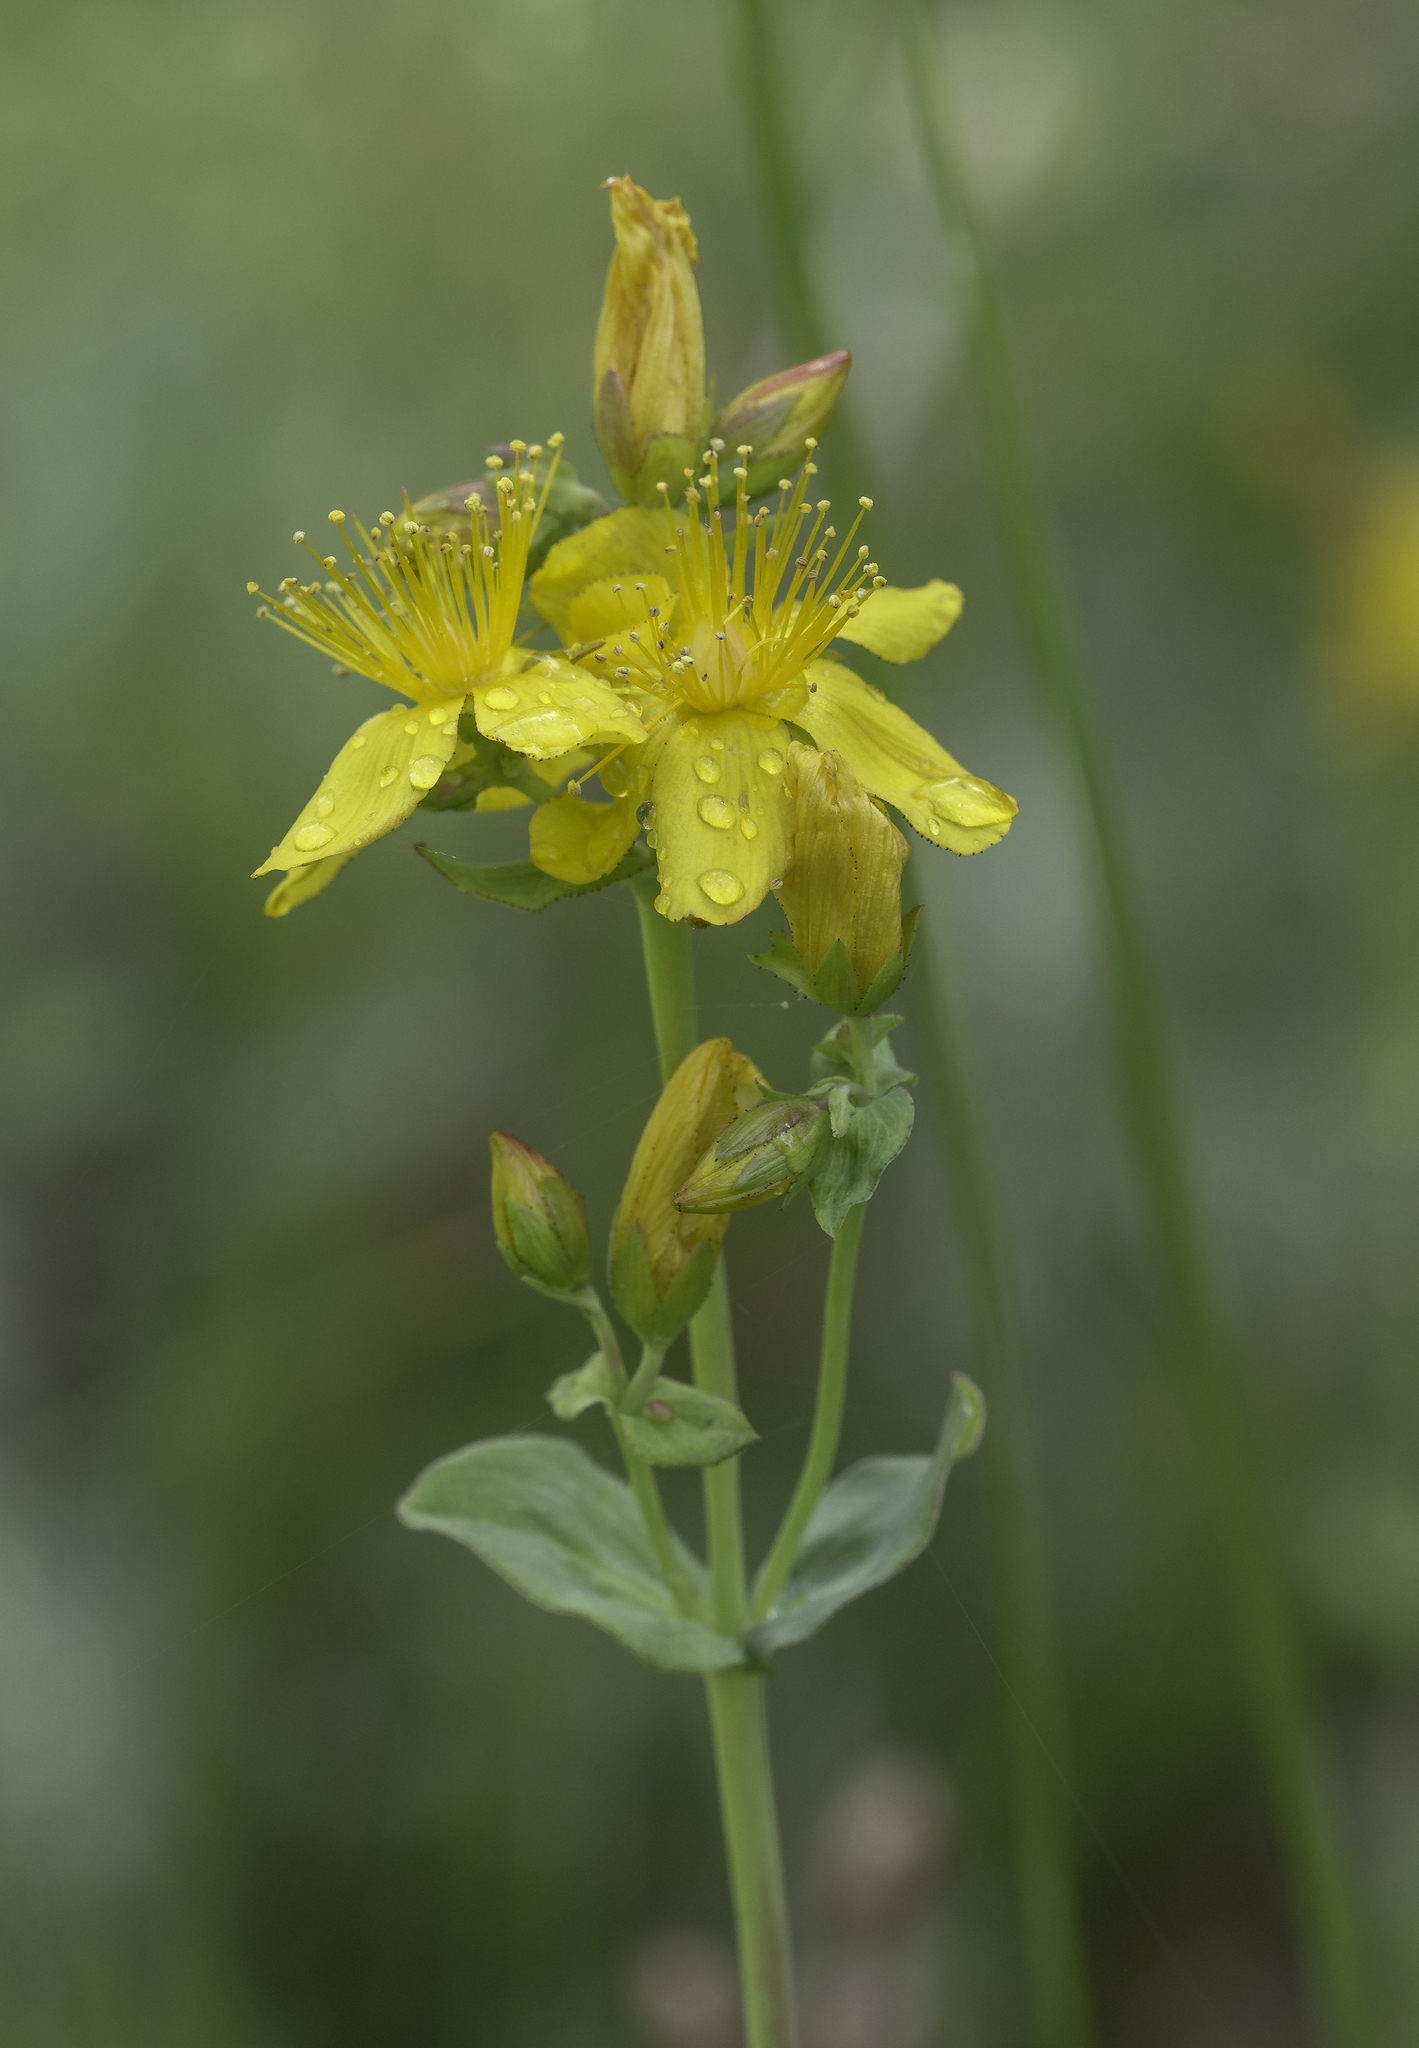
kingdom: Plantae
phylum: Tracheophyta
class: Magnoliopsida
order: Malpighiales
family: Hypericaceae
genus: Hypericum
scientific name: Hypericum scouleri
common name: Scouler's st. john's-wort
